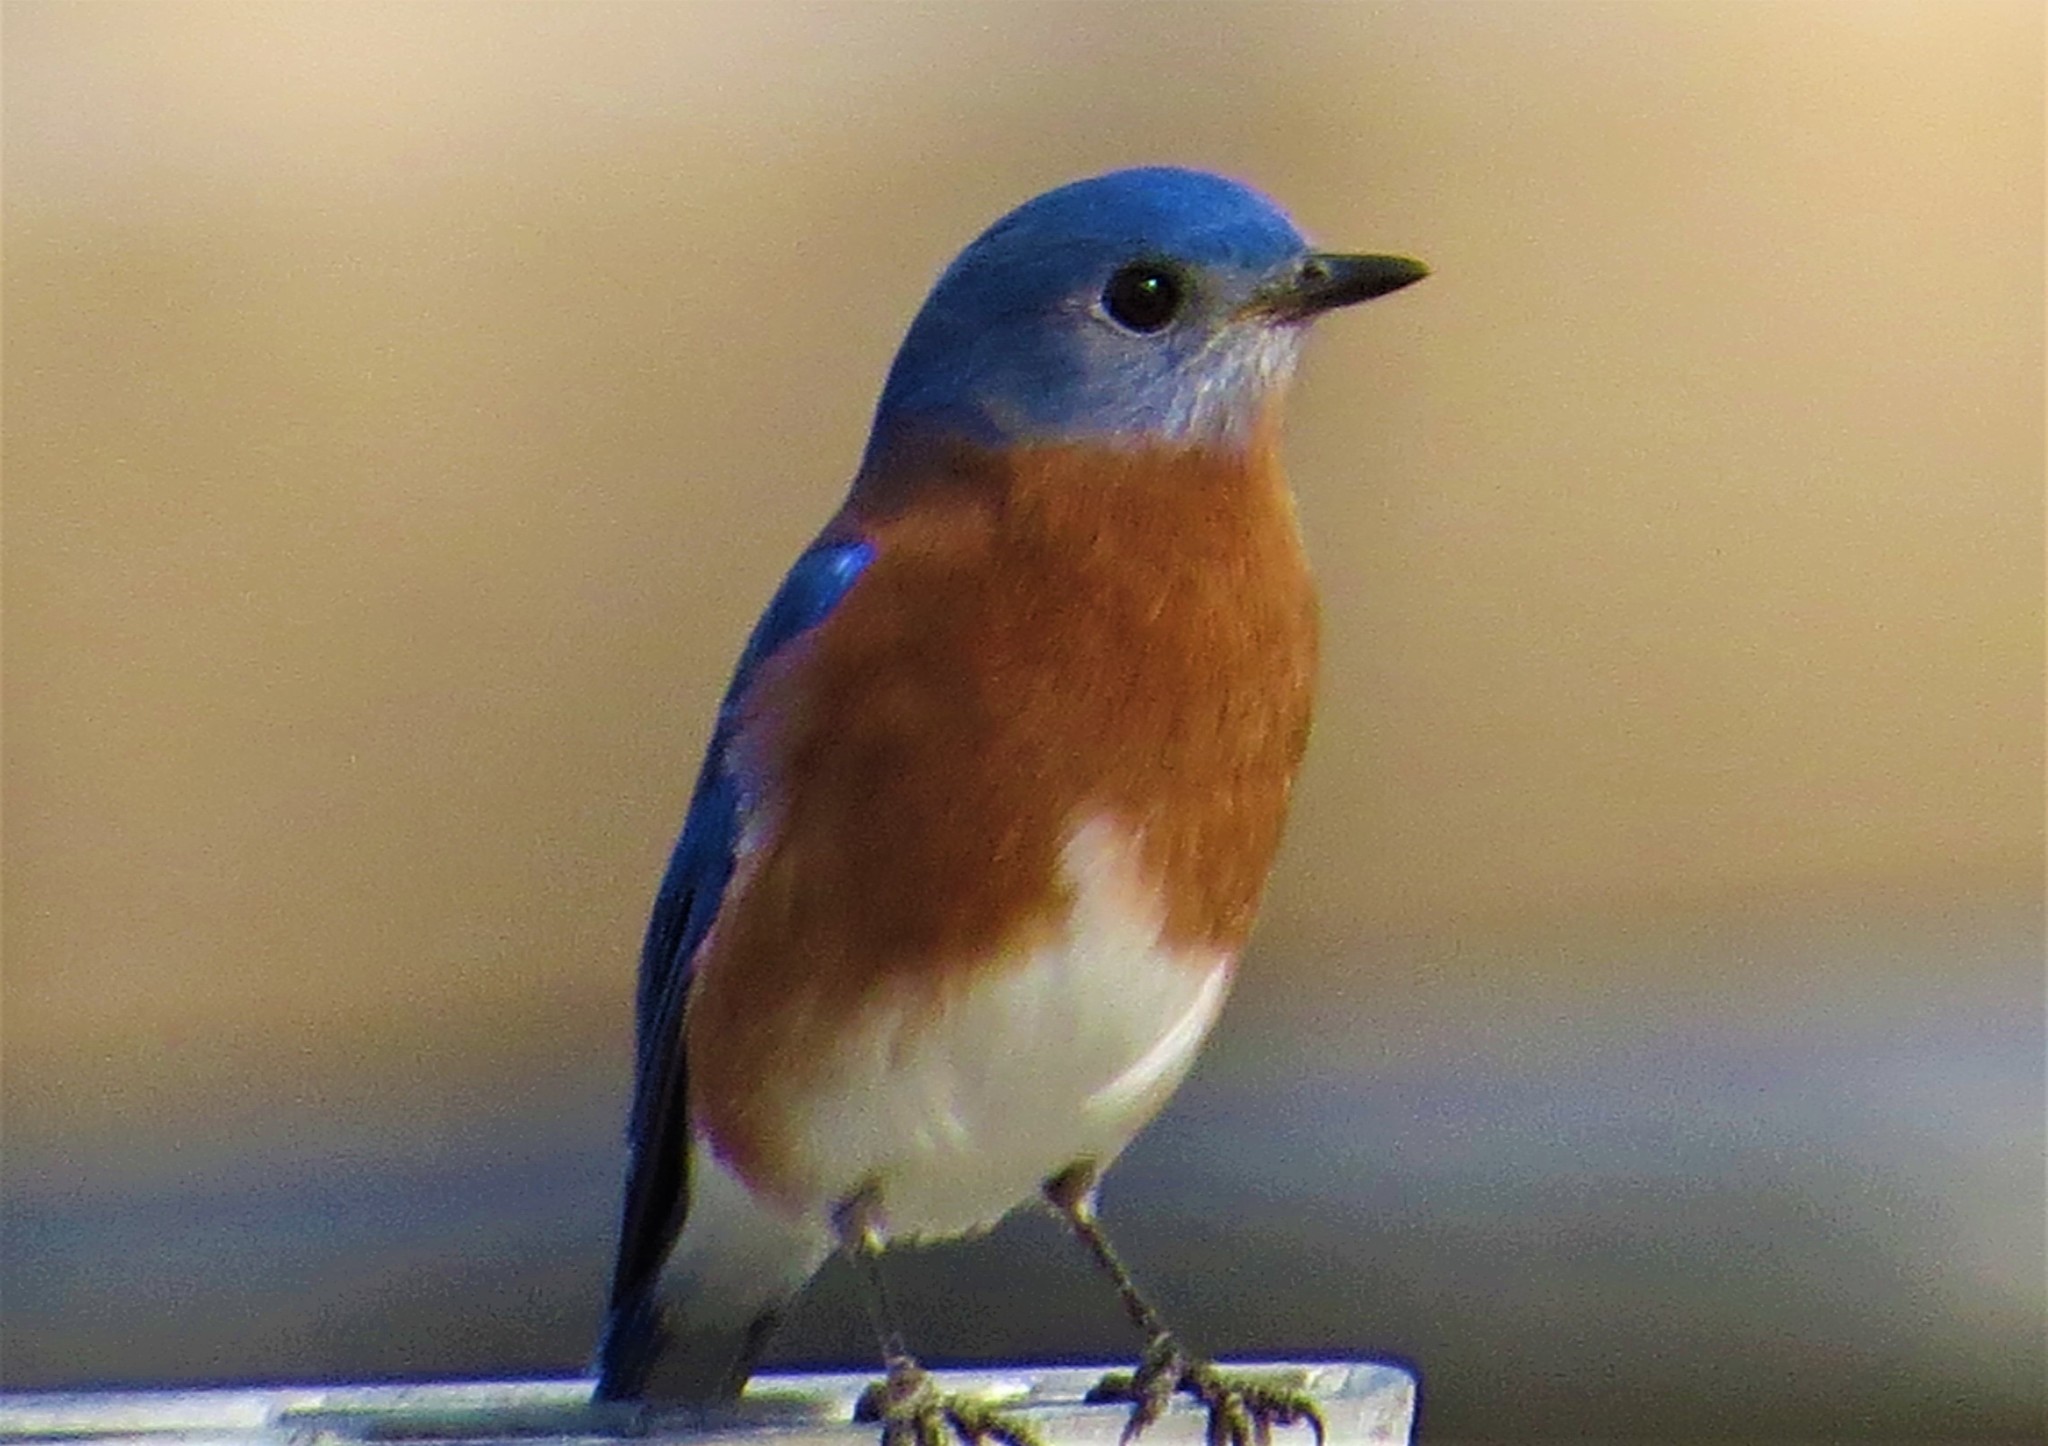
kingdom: Animalia
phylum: Chordata
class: Aves
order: Passeriformes
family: Turdidae
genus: Sialia
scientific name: Sialia sialis
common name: Eastern bluebird
